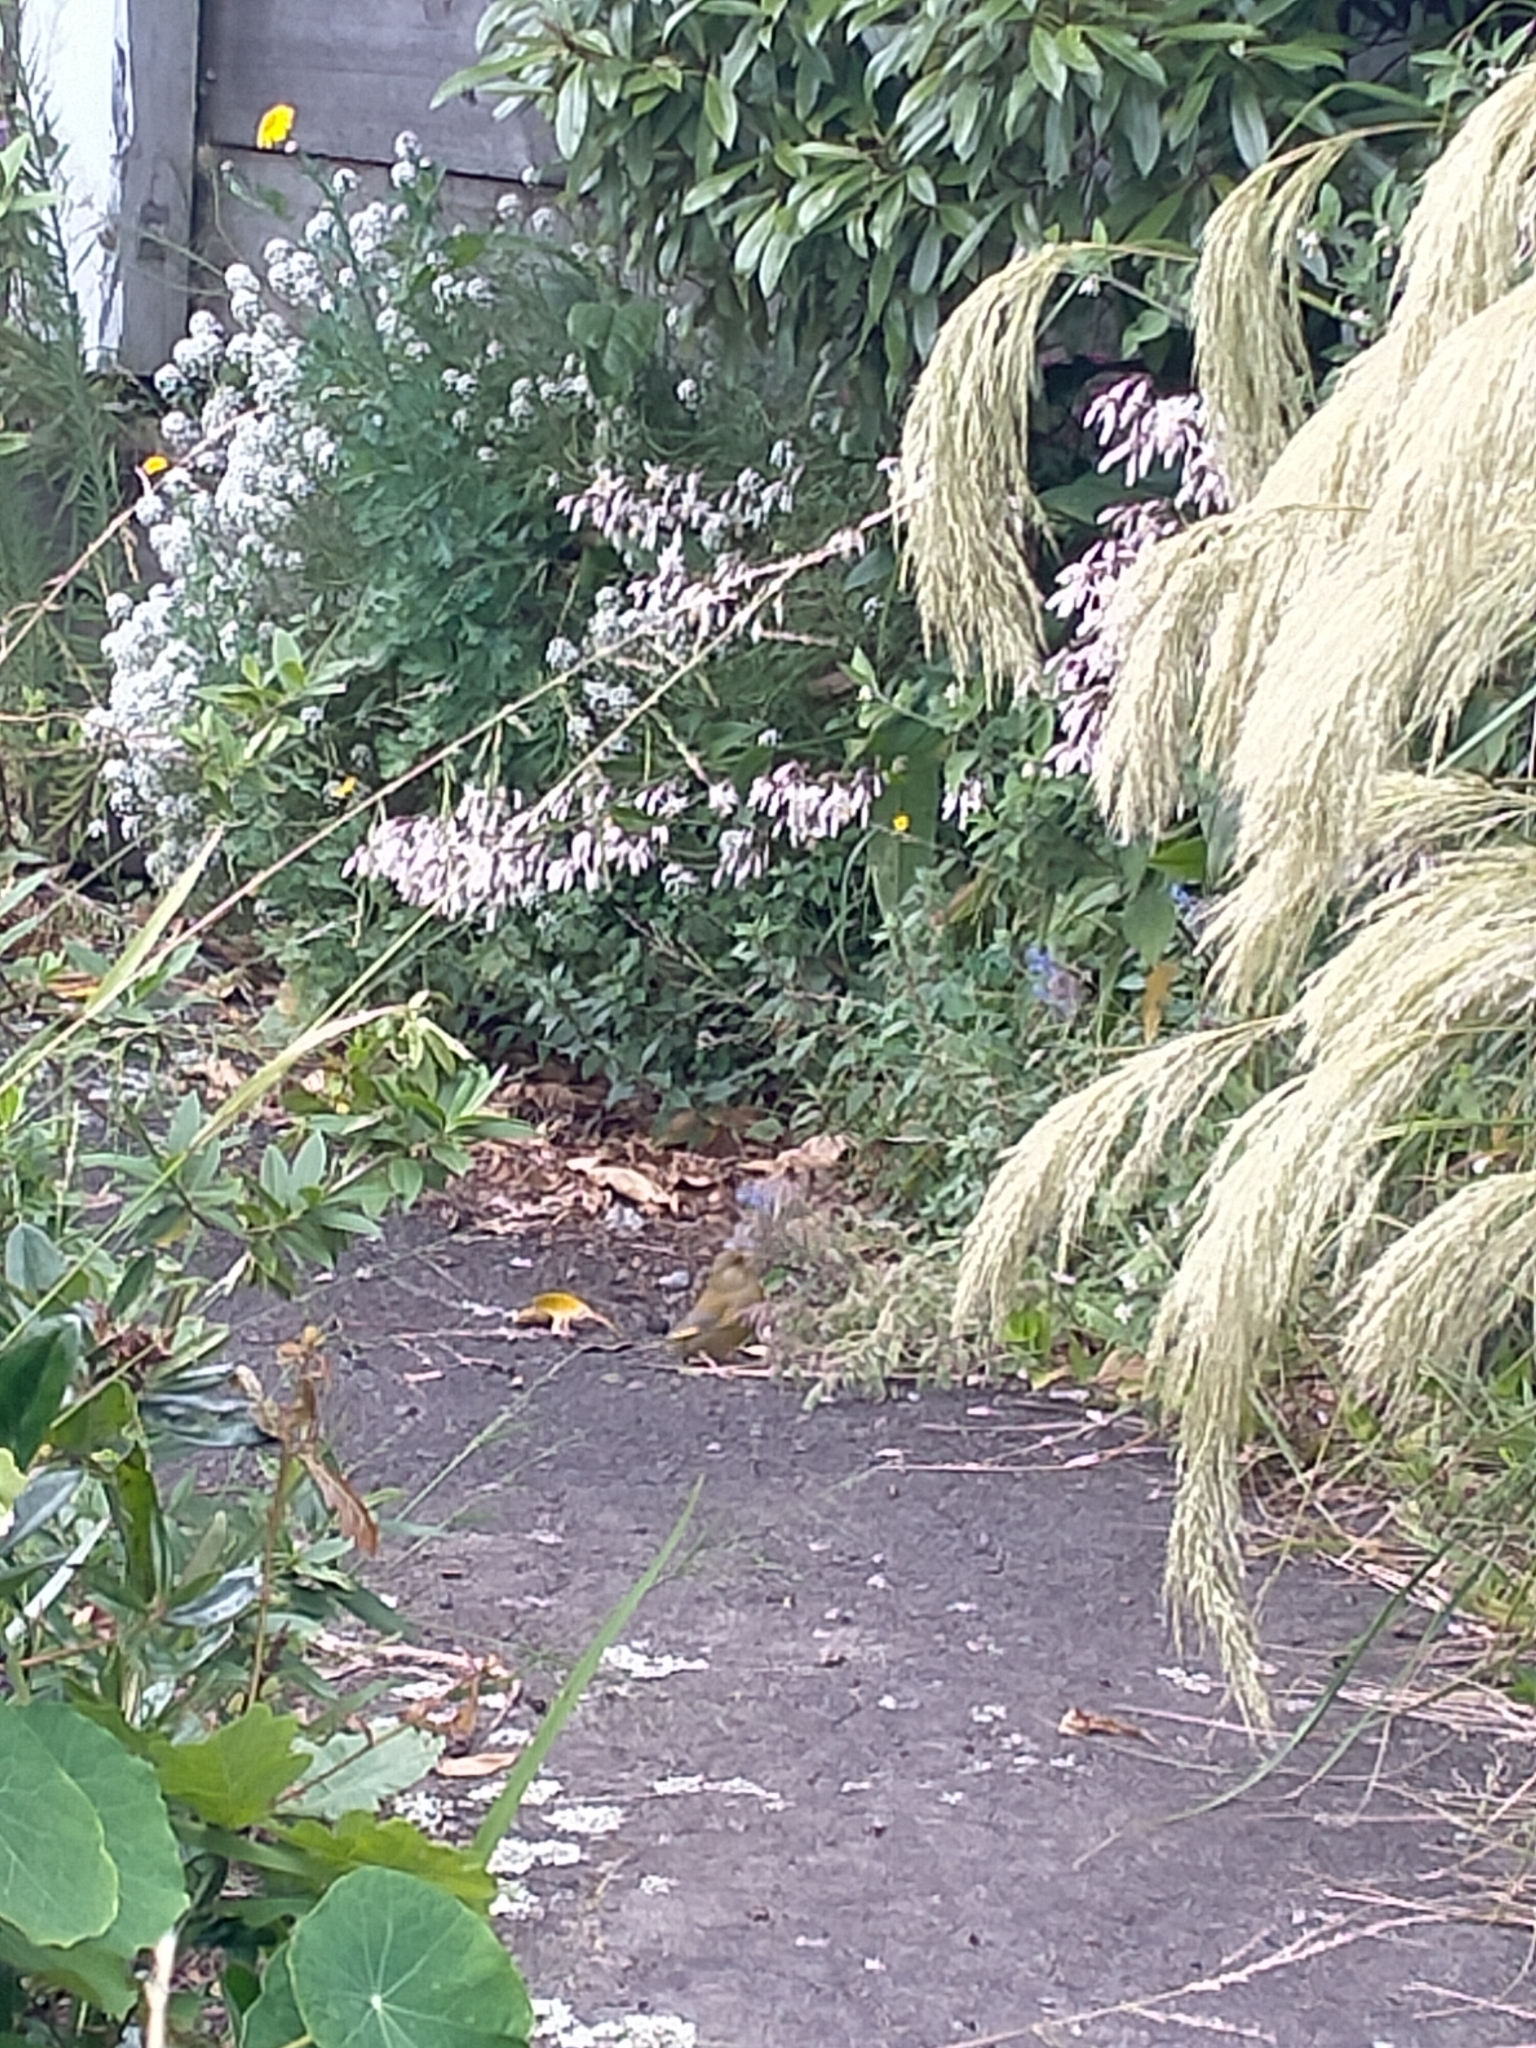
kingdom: Plantae
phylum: Tracheophyta
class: Liliopsida
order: Poales
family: Poaceae
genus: Chloris
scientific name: Chloris chloris
